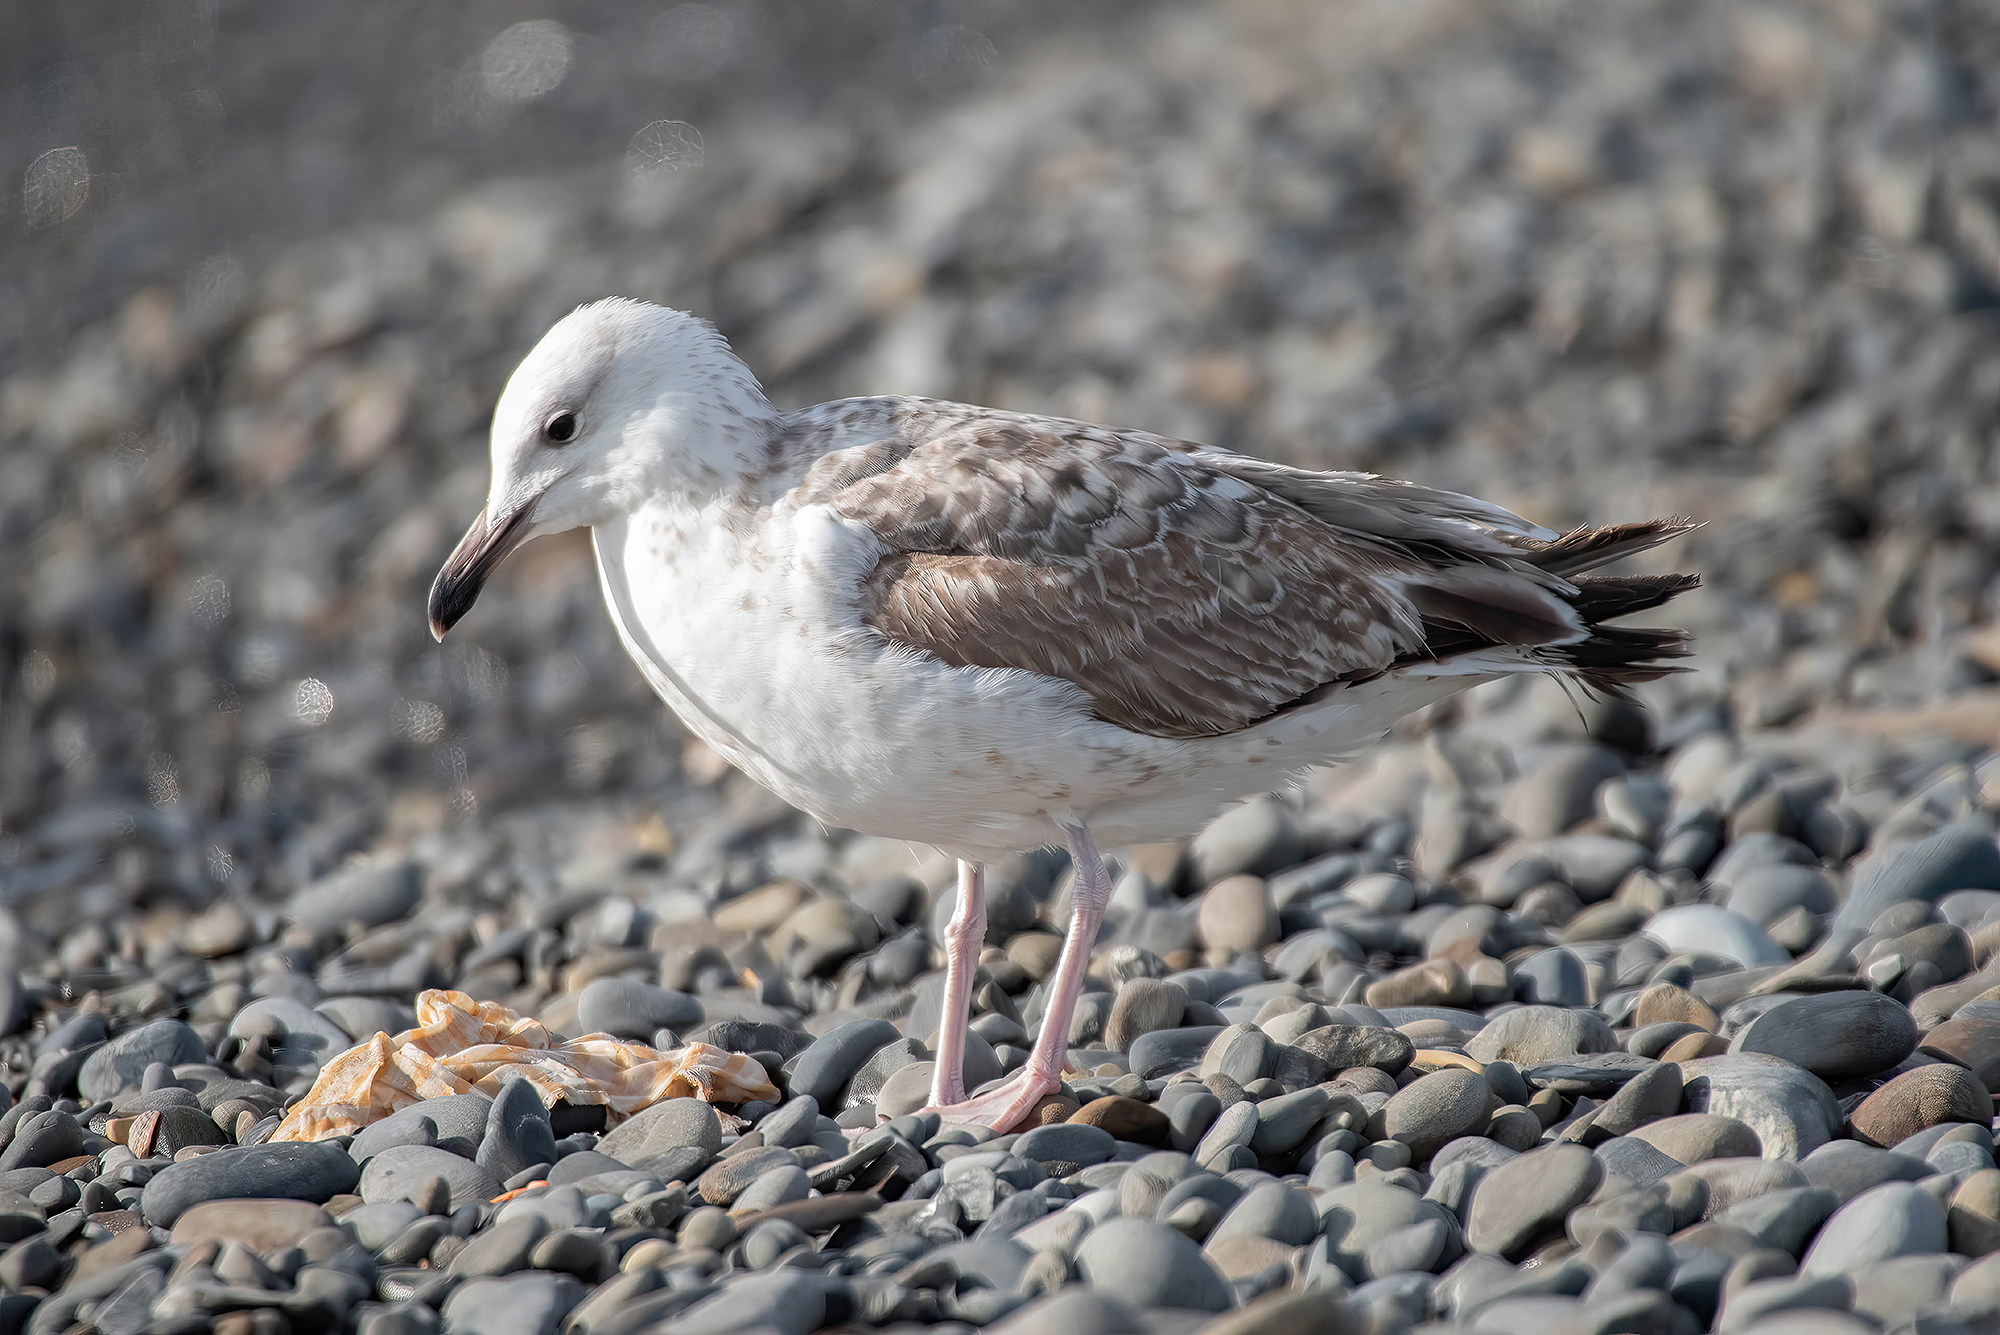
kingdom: Animalia
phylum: Chordata
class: Aves
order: Charadriiformes
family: Laridae
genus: Larus
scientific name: Larus cachinnans
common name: Caspian gull
